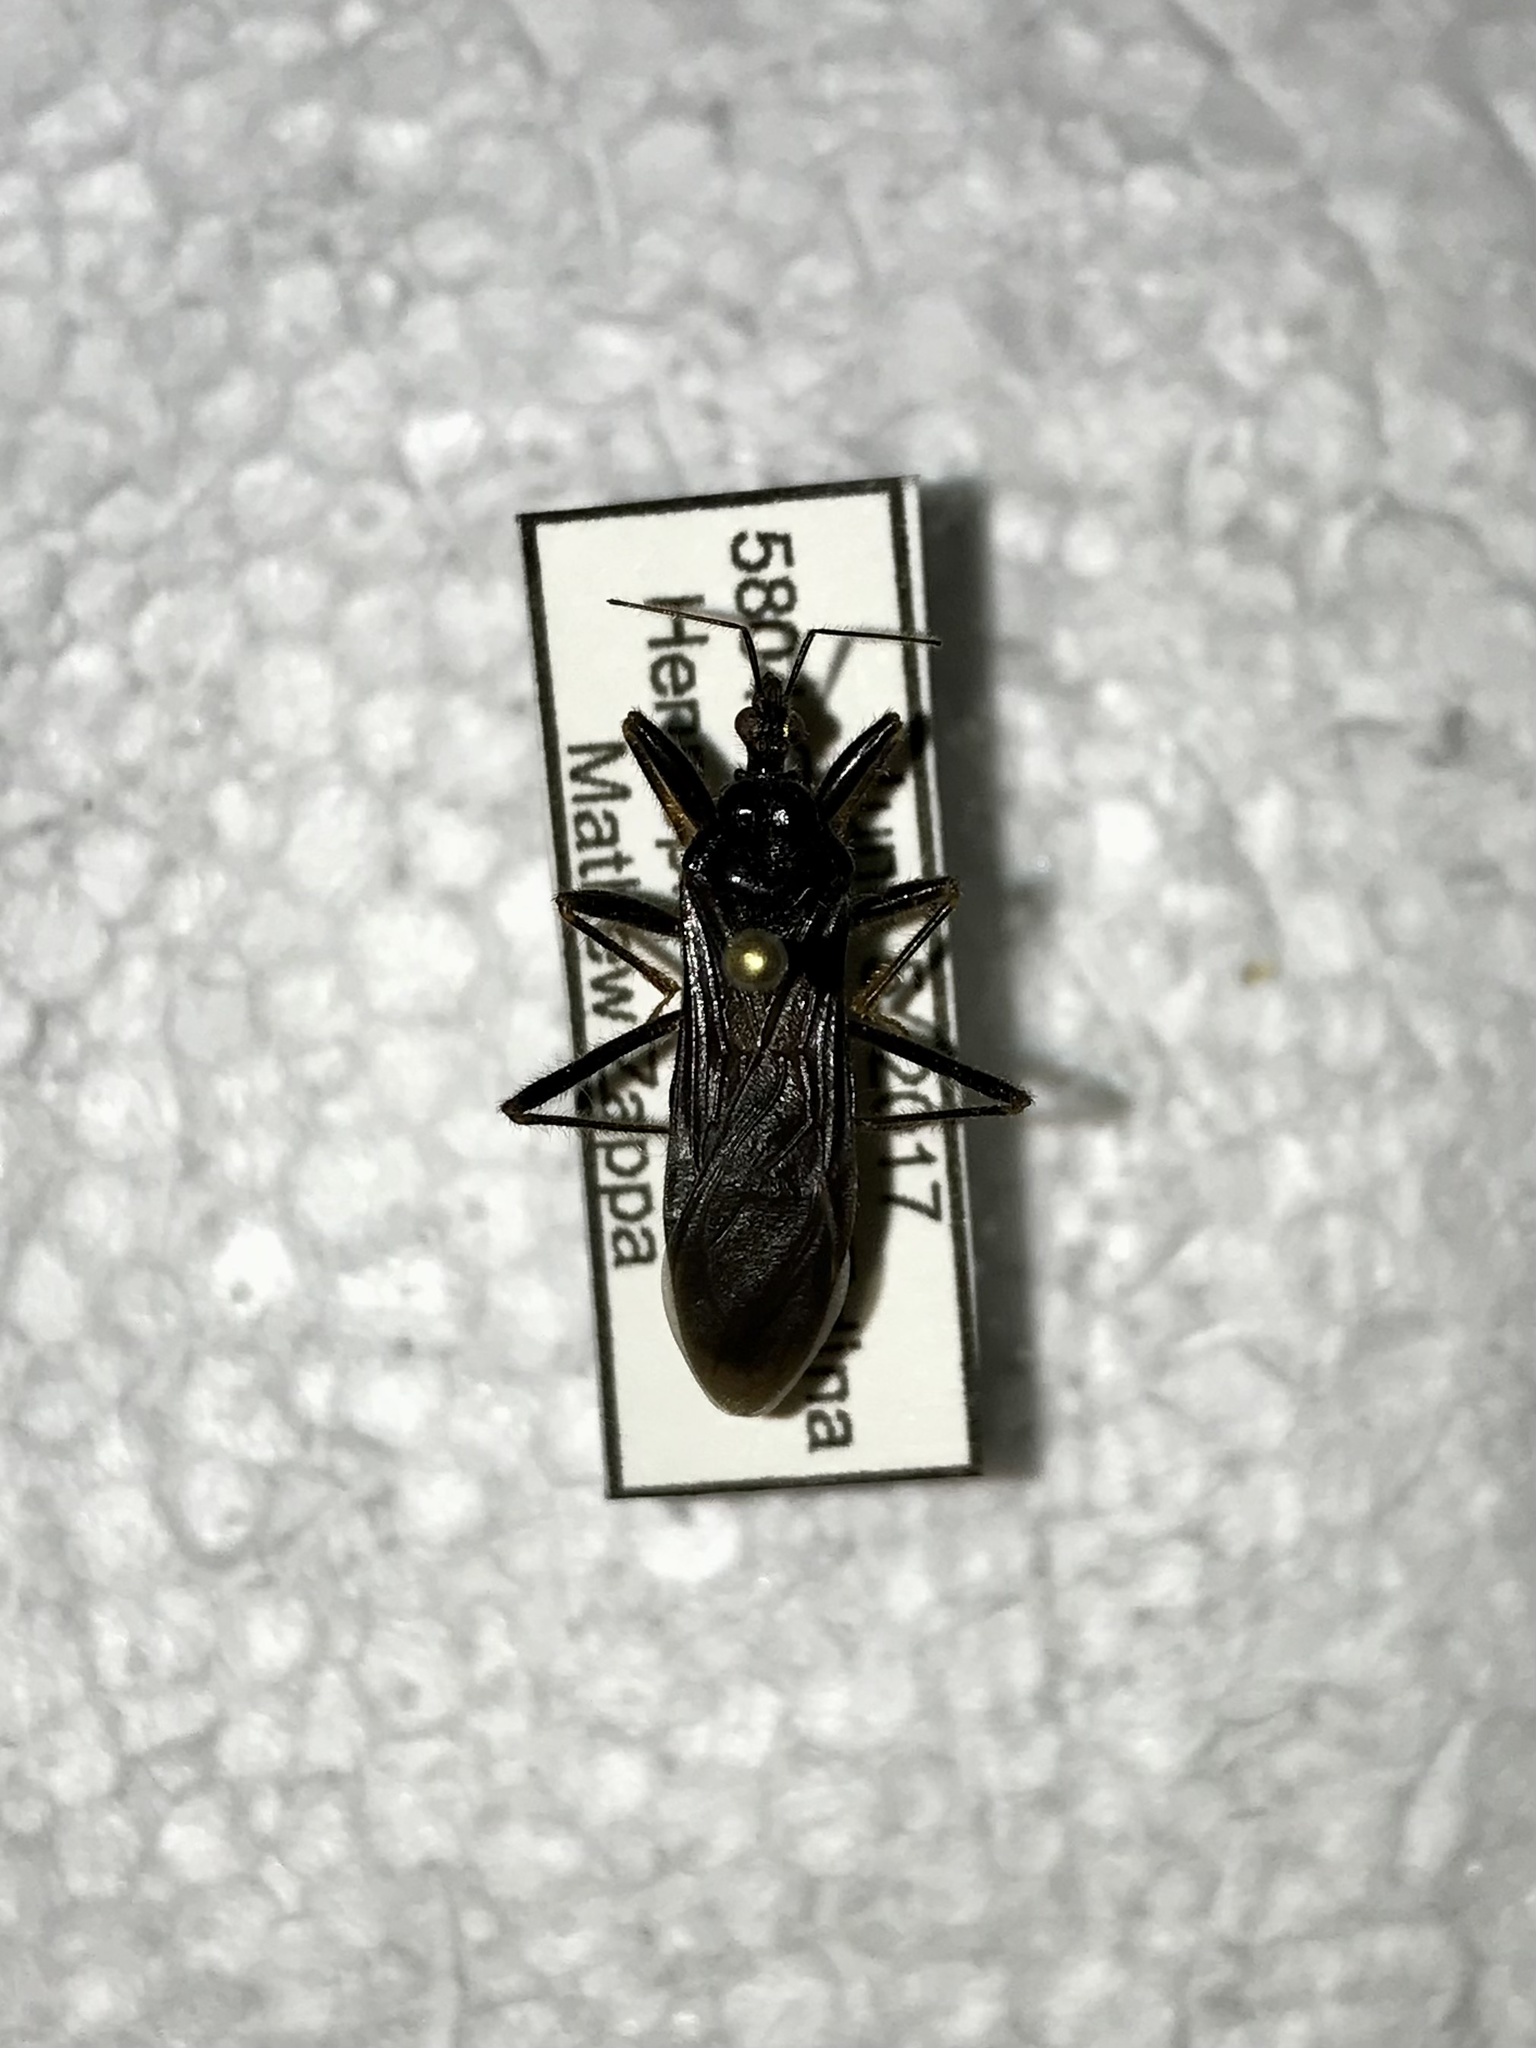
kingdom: Animalia
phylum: Arthropoda
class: Insecta
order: Hemiptera
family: Reduviidae
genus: Reduvius
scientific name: Reduvius personatus
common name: Masked hunter
